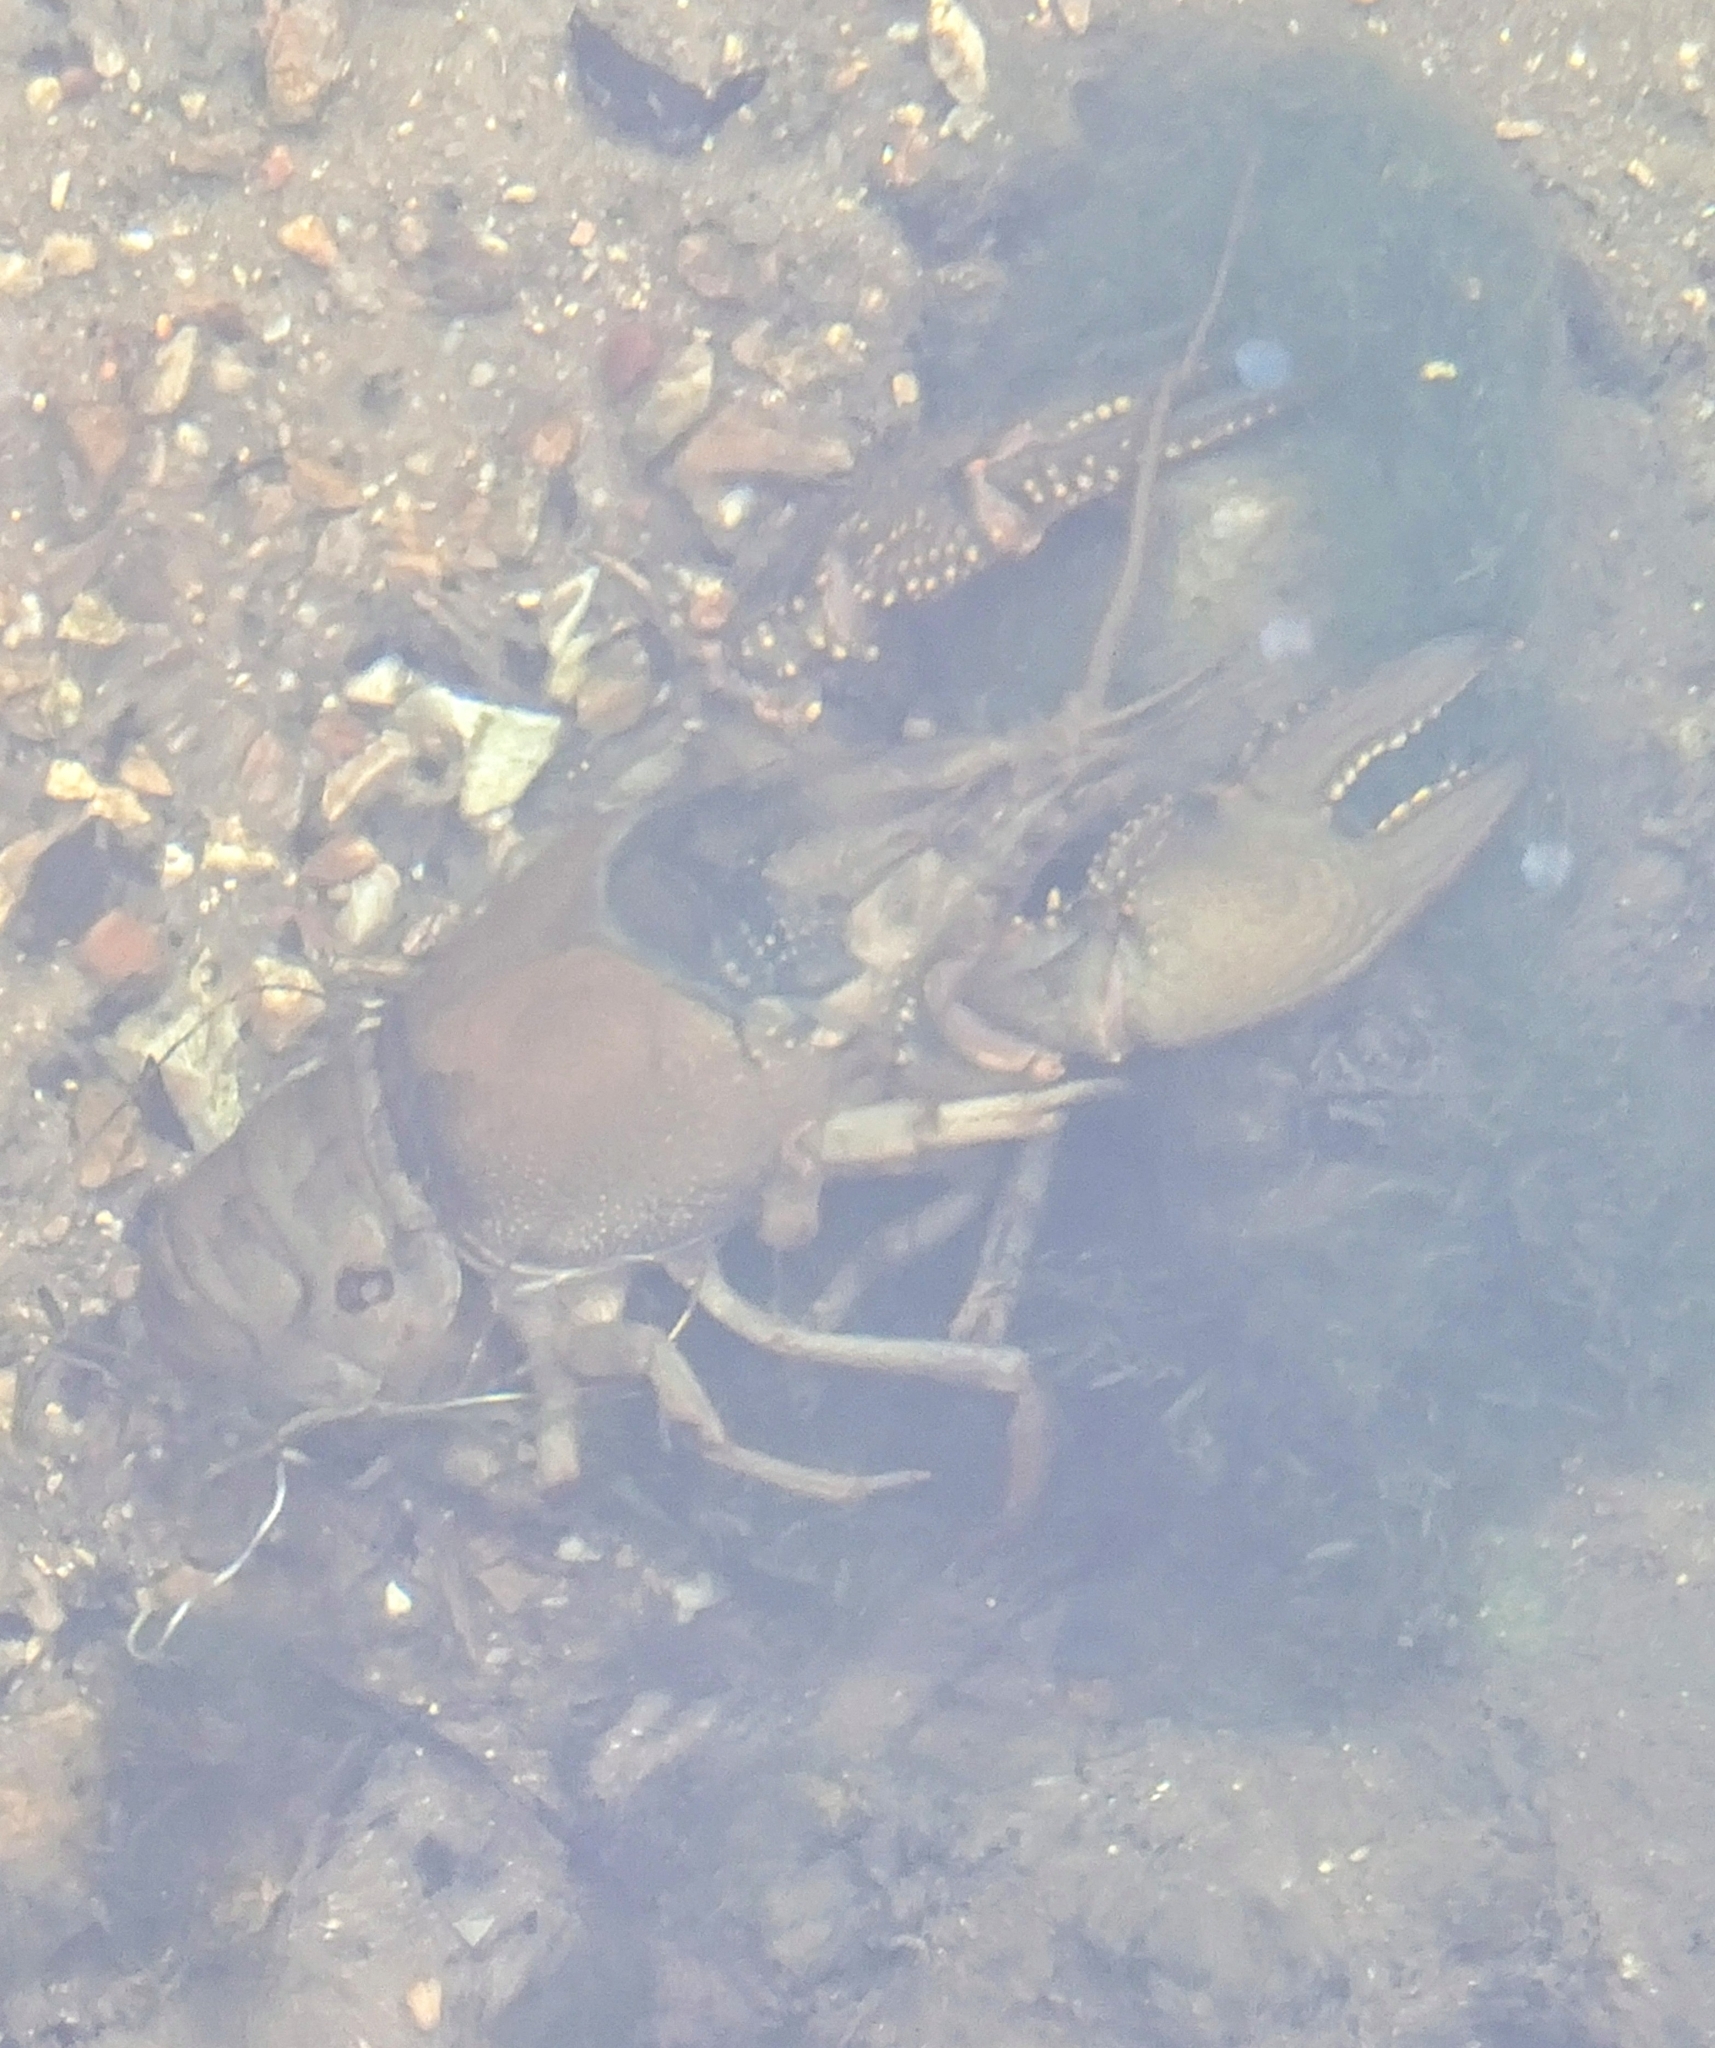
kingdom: Animalia
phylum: Arthropoda
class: Malacostraca
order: Decapoda
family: Cambaridae
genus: Faxonius
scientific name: Faxonius virilis
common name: Virile crayfish
